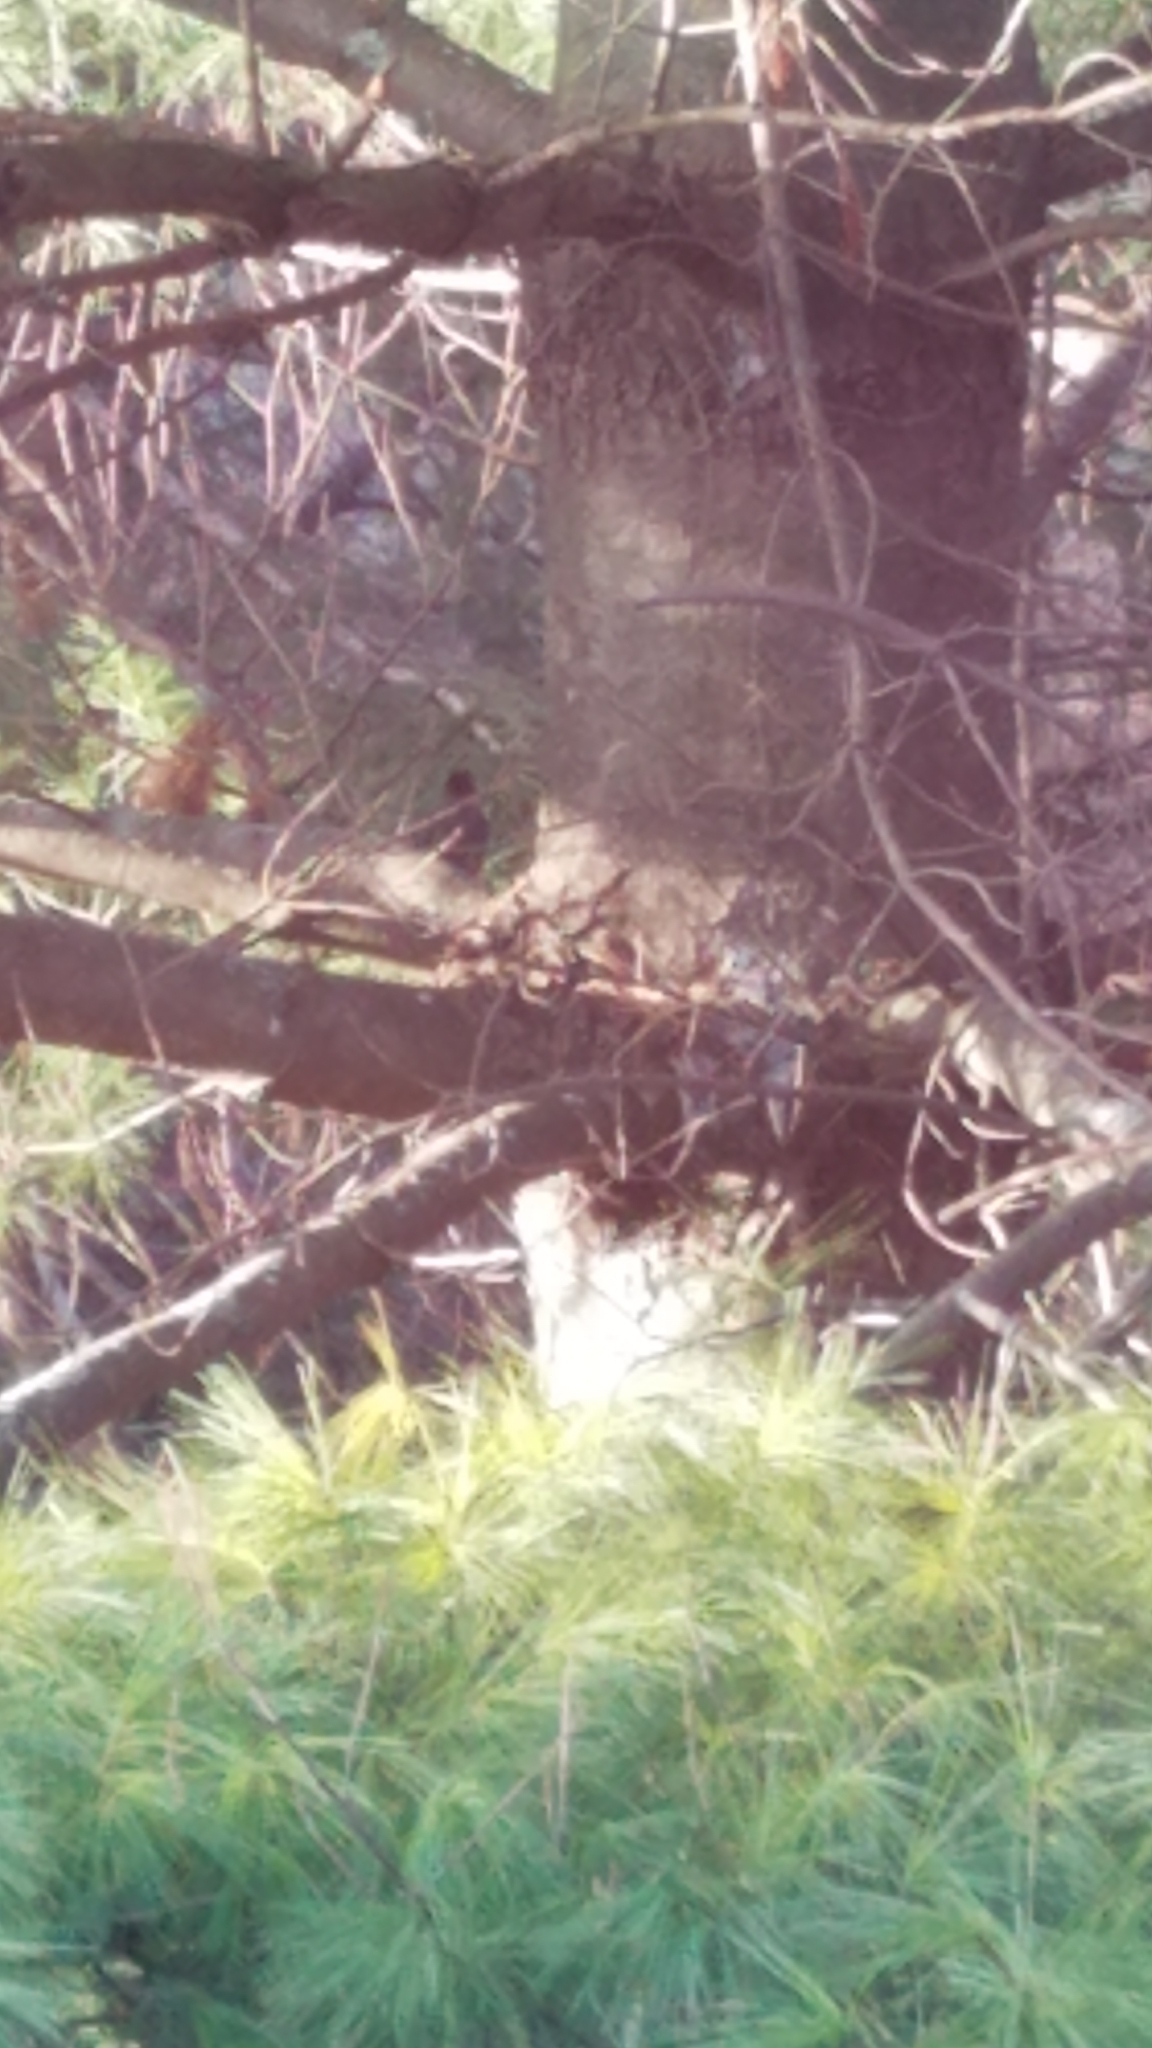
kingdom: Animalia
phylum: Chordata
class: Aves
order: Passeriformes
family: Turdidae
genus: Turdus
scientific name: Turdus migratorius
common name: American robin
